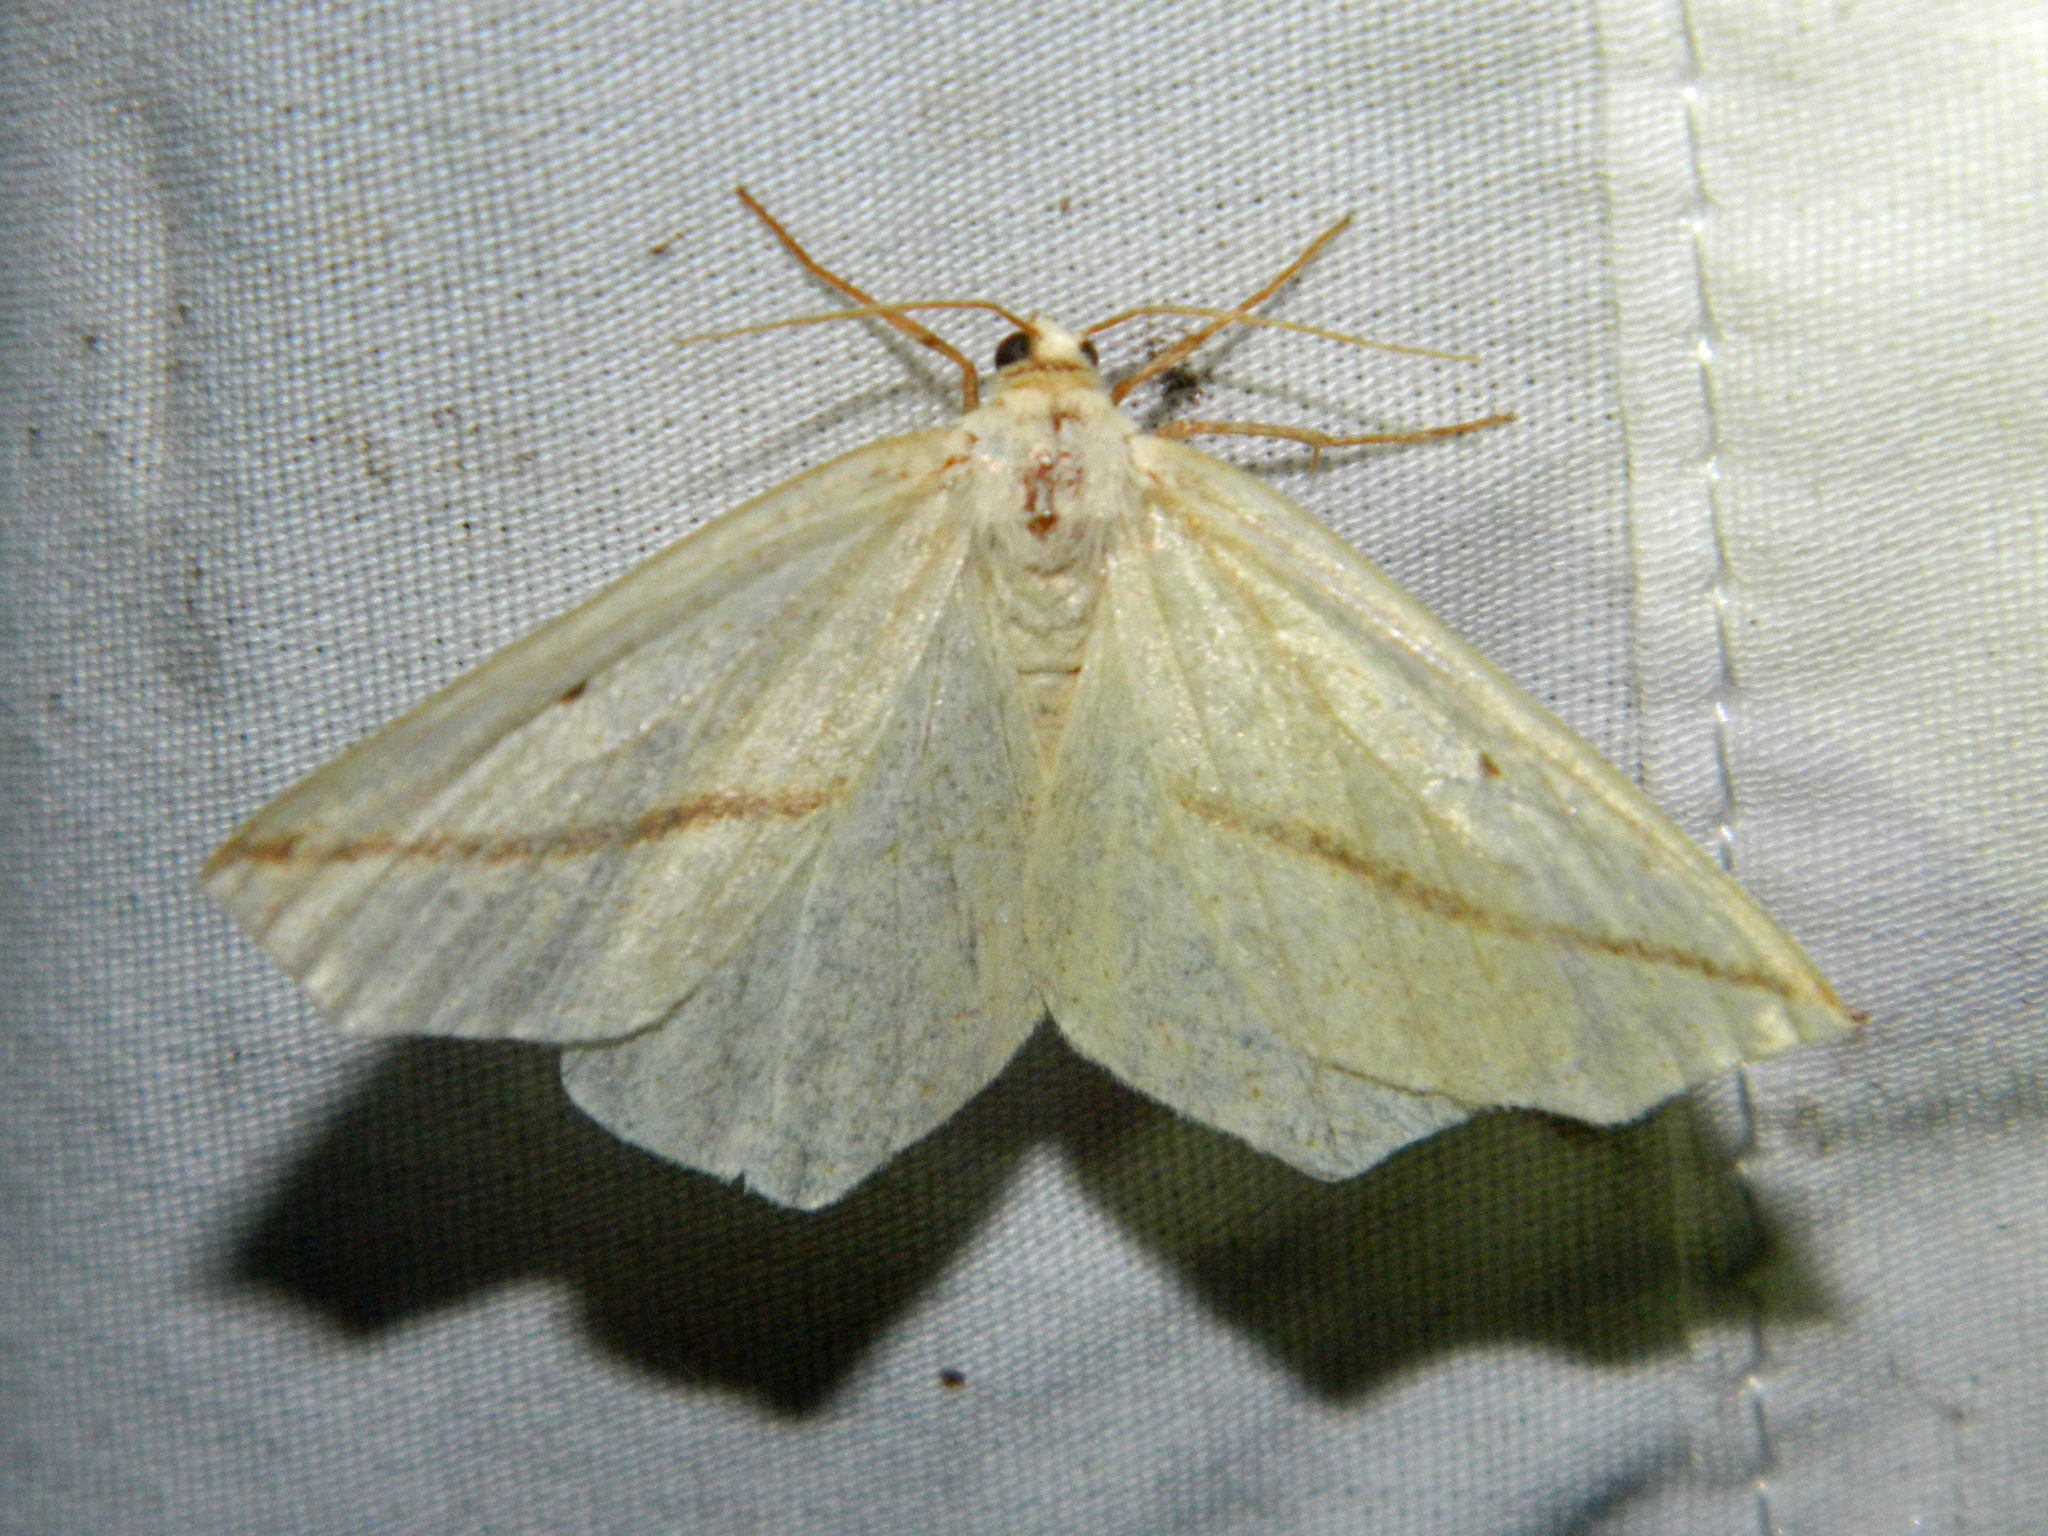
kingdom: Animalia
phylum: Arthropoda
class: Insecta
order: Lepidoptera
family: Geometridae
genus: Tetracis
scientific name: Tetracis crocallata
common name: Yellow slant-line
